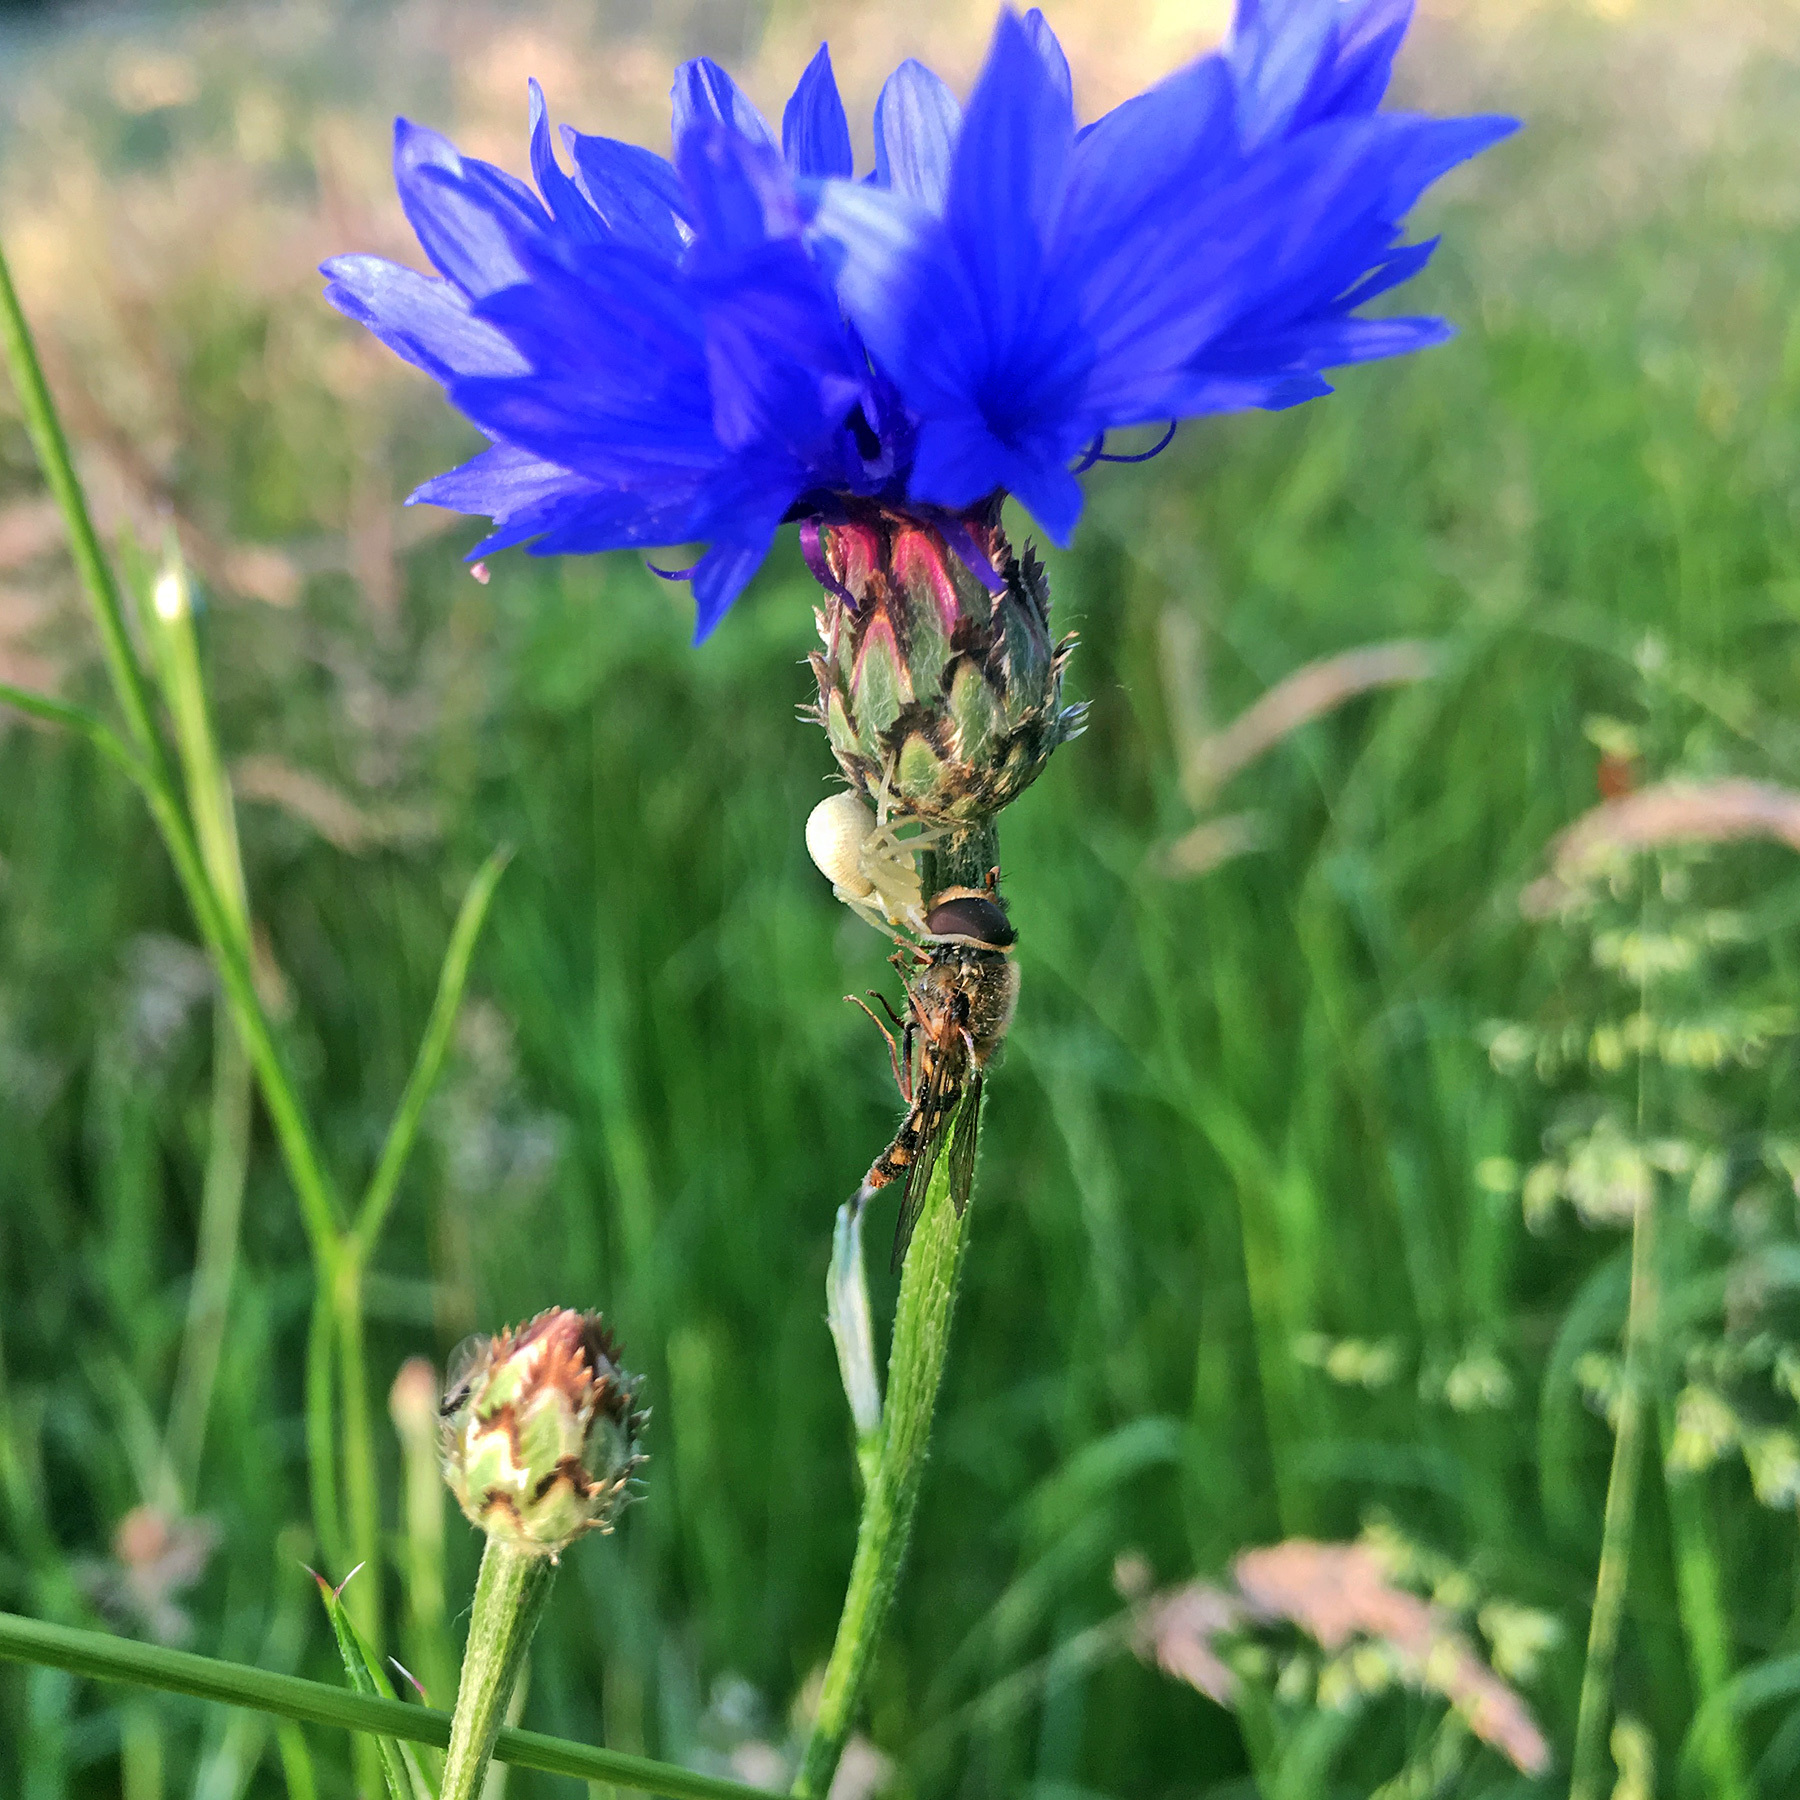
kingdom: Animalia
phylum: Arthropoda
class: Arachnida
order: Araneae
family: Thomisidae
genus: Misumena
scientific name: Misumena vatia
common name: Goldenrod crab spider
